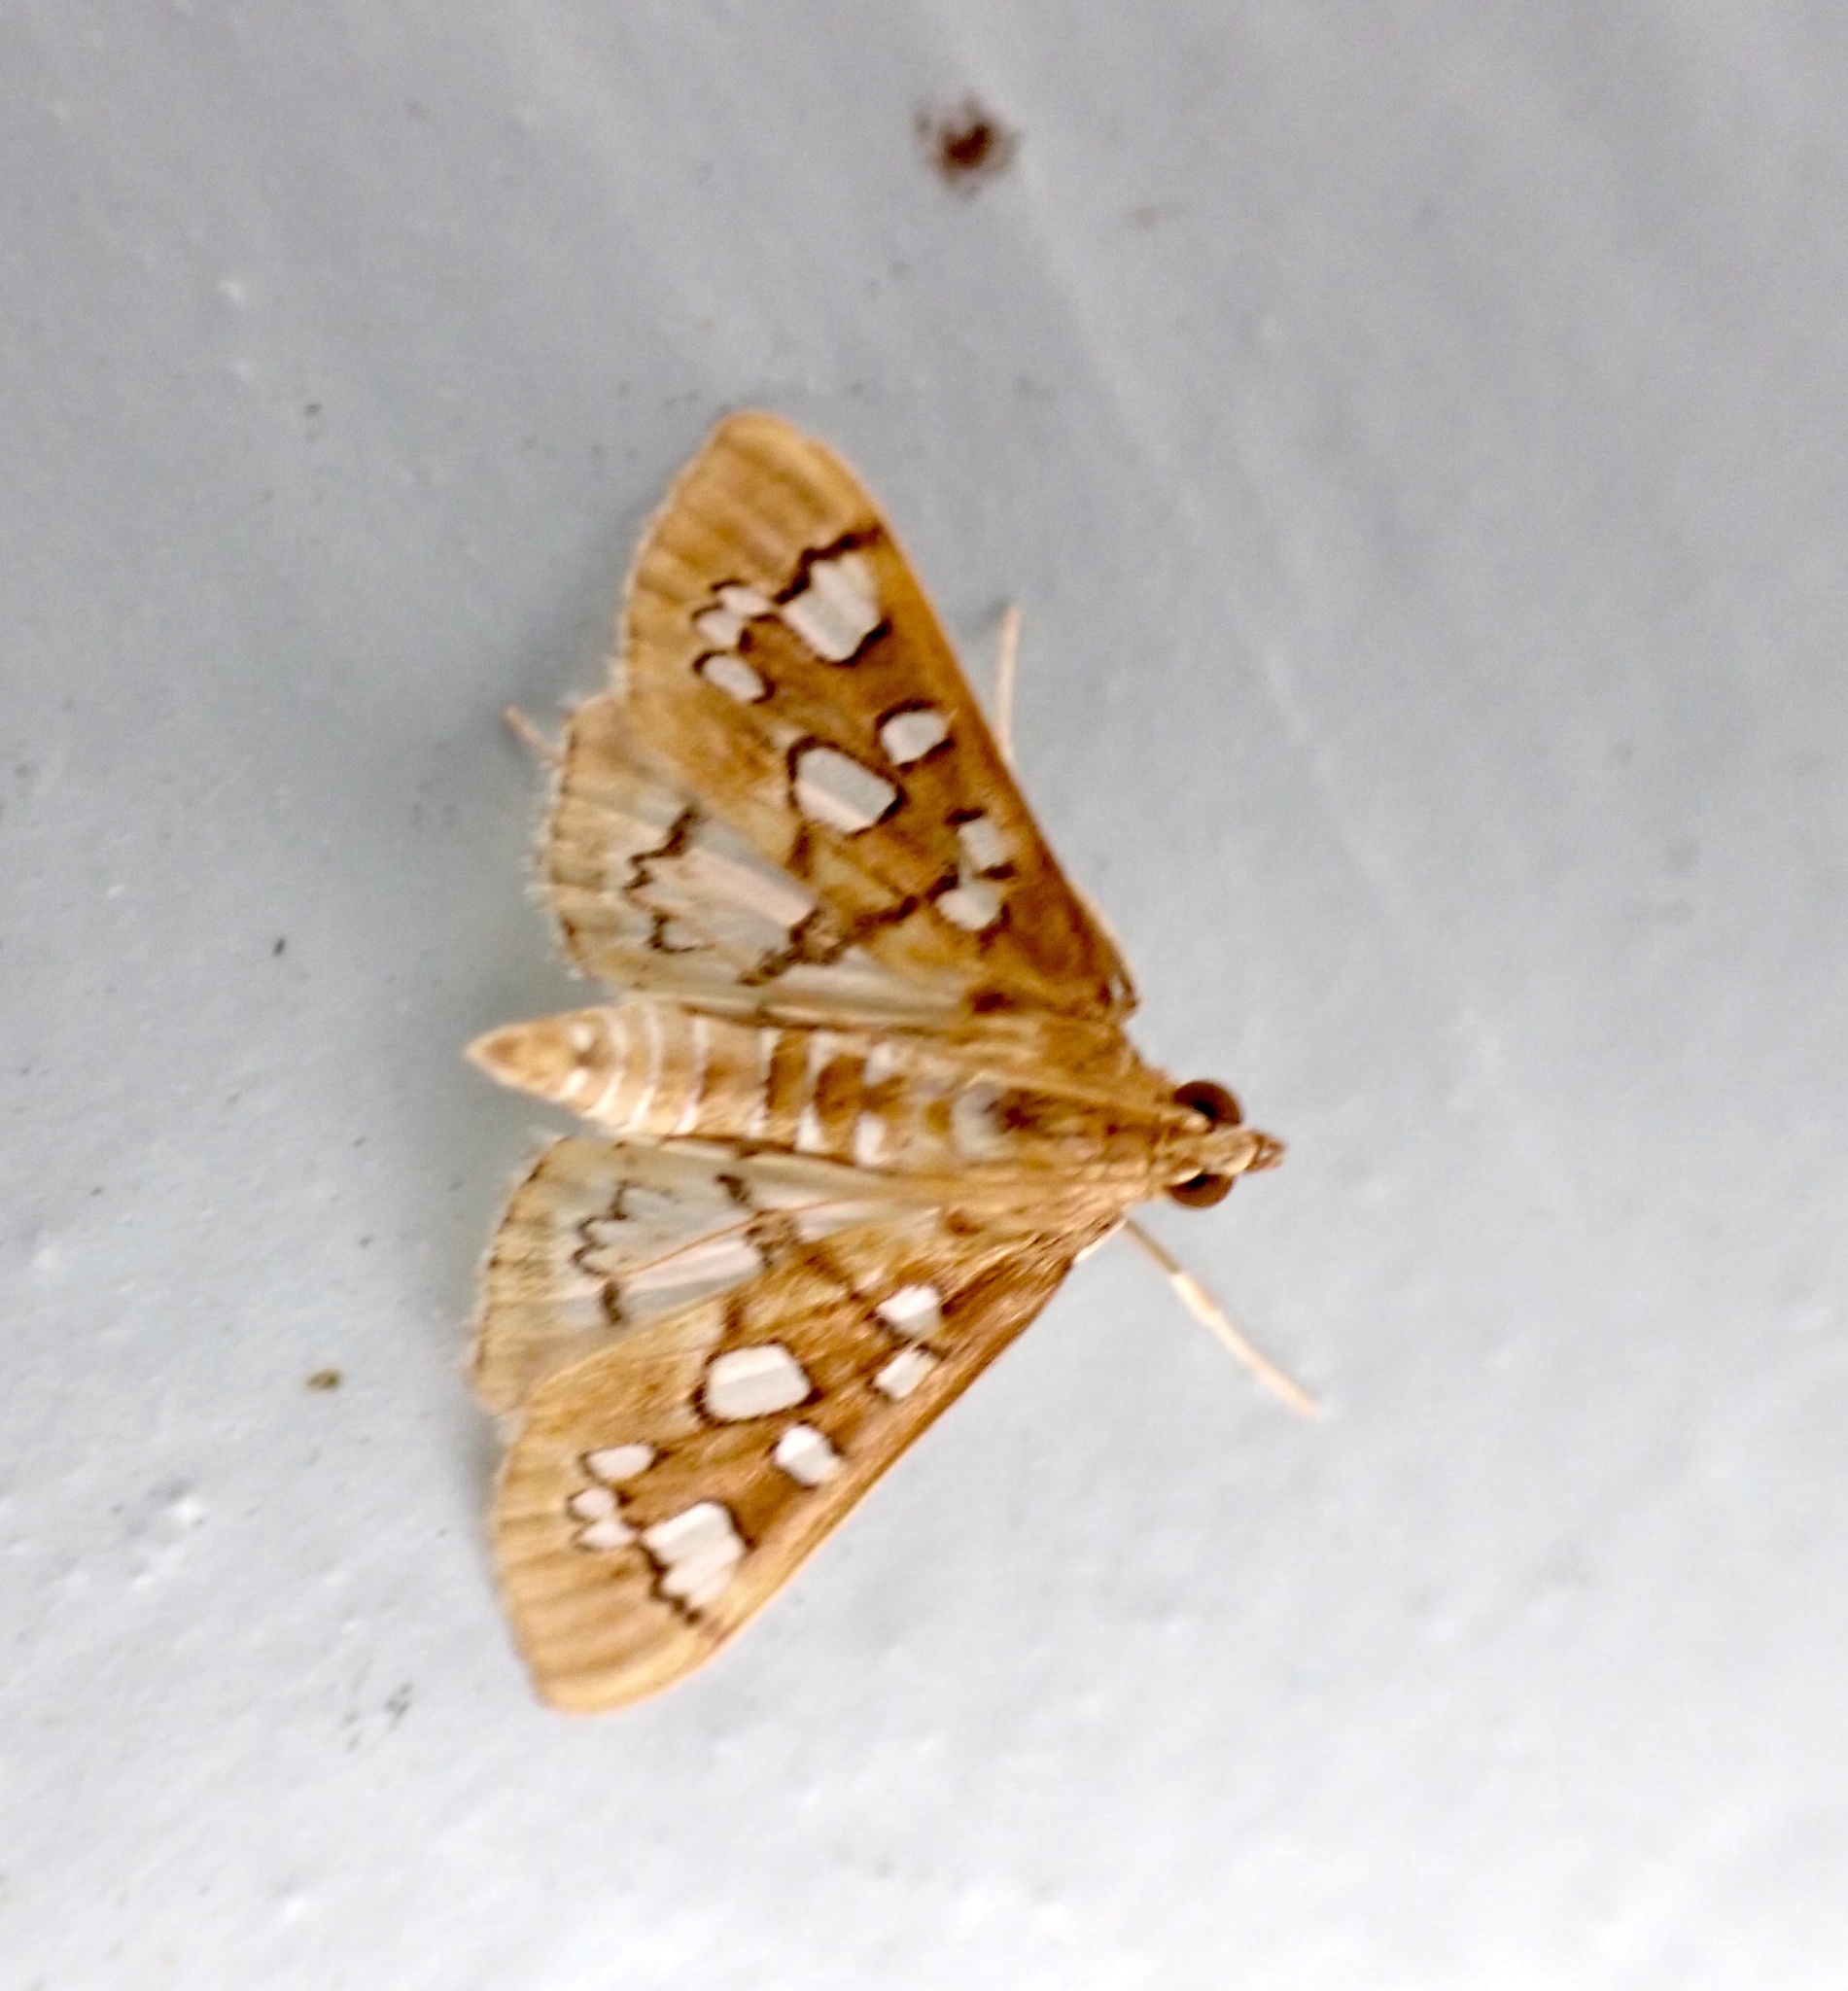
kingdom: Animalia
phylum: Arthropoda
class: Insecta
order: Lepidoptera
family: Crambidae
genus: Samea
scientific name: Samea baccatalis
